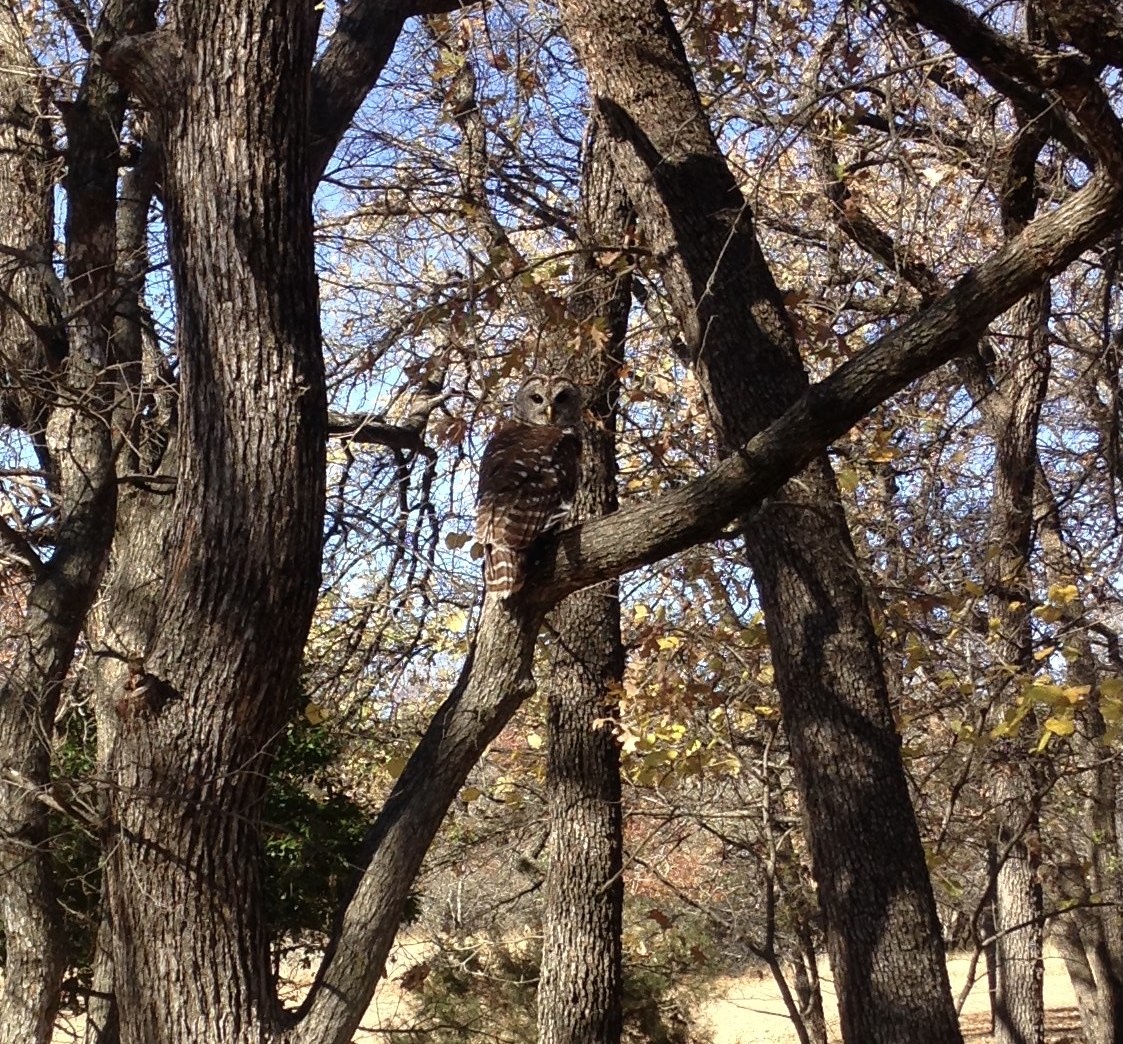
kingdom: Animalia
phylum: Chordata
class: Aves
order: Strigiformes
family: Strigidae
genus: Strix
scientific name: Strix varia
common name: Barred owl
